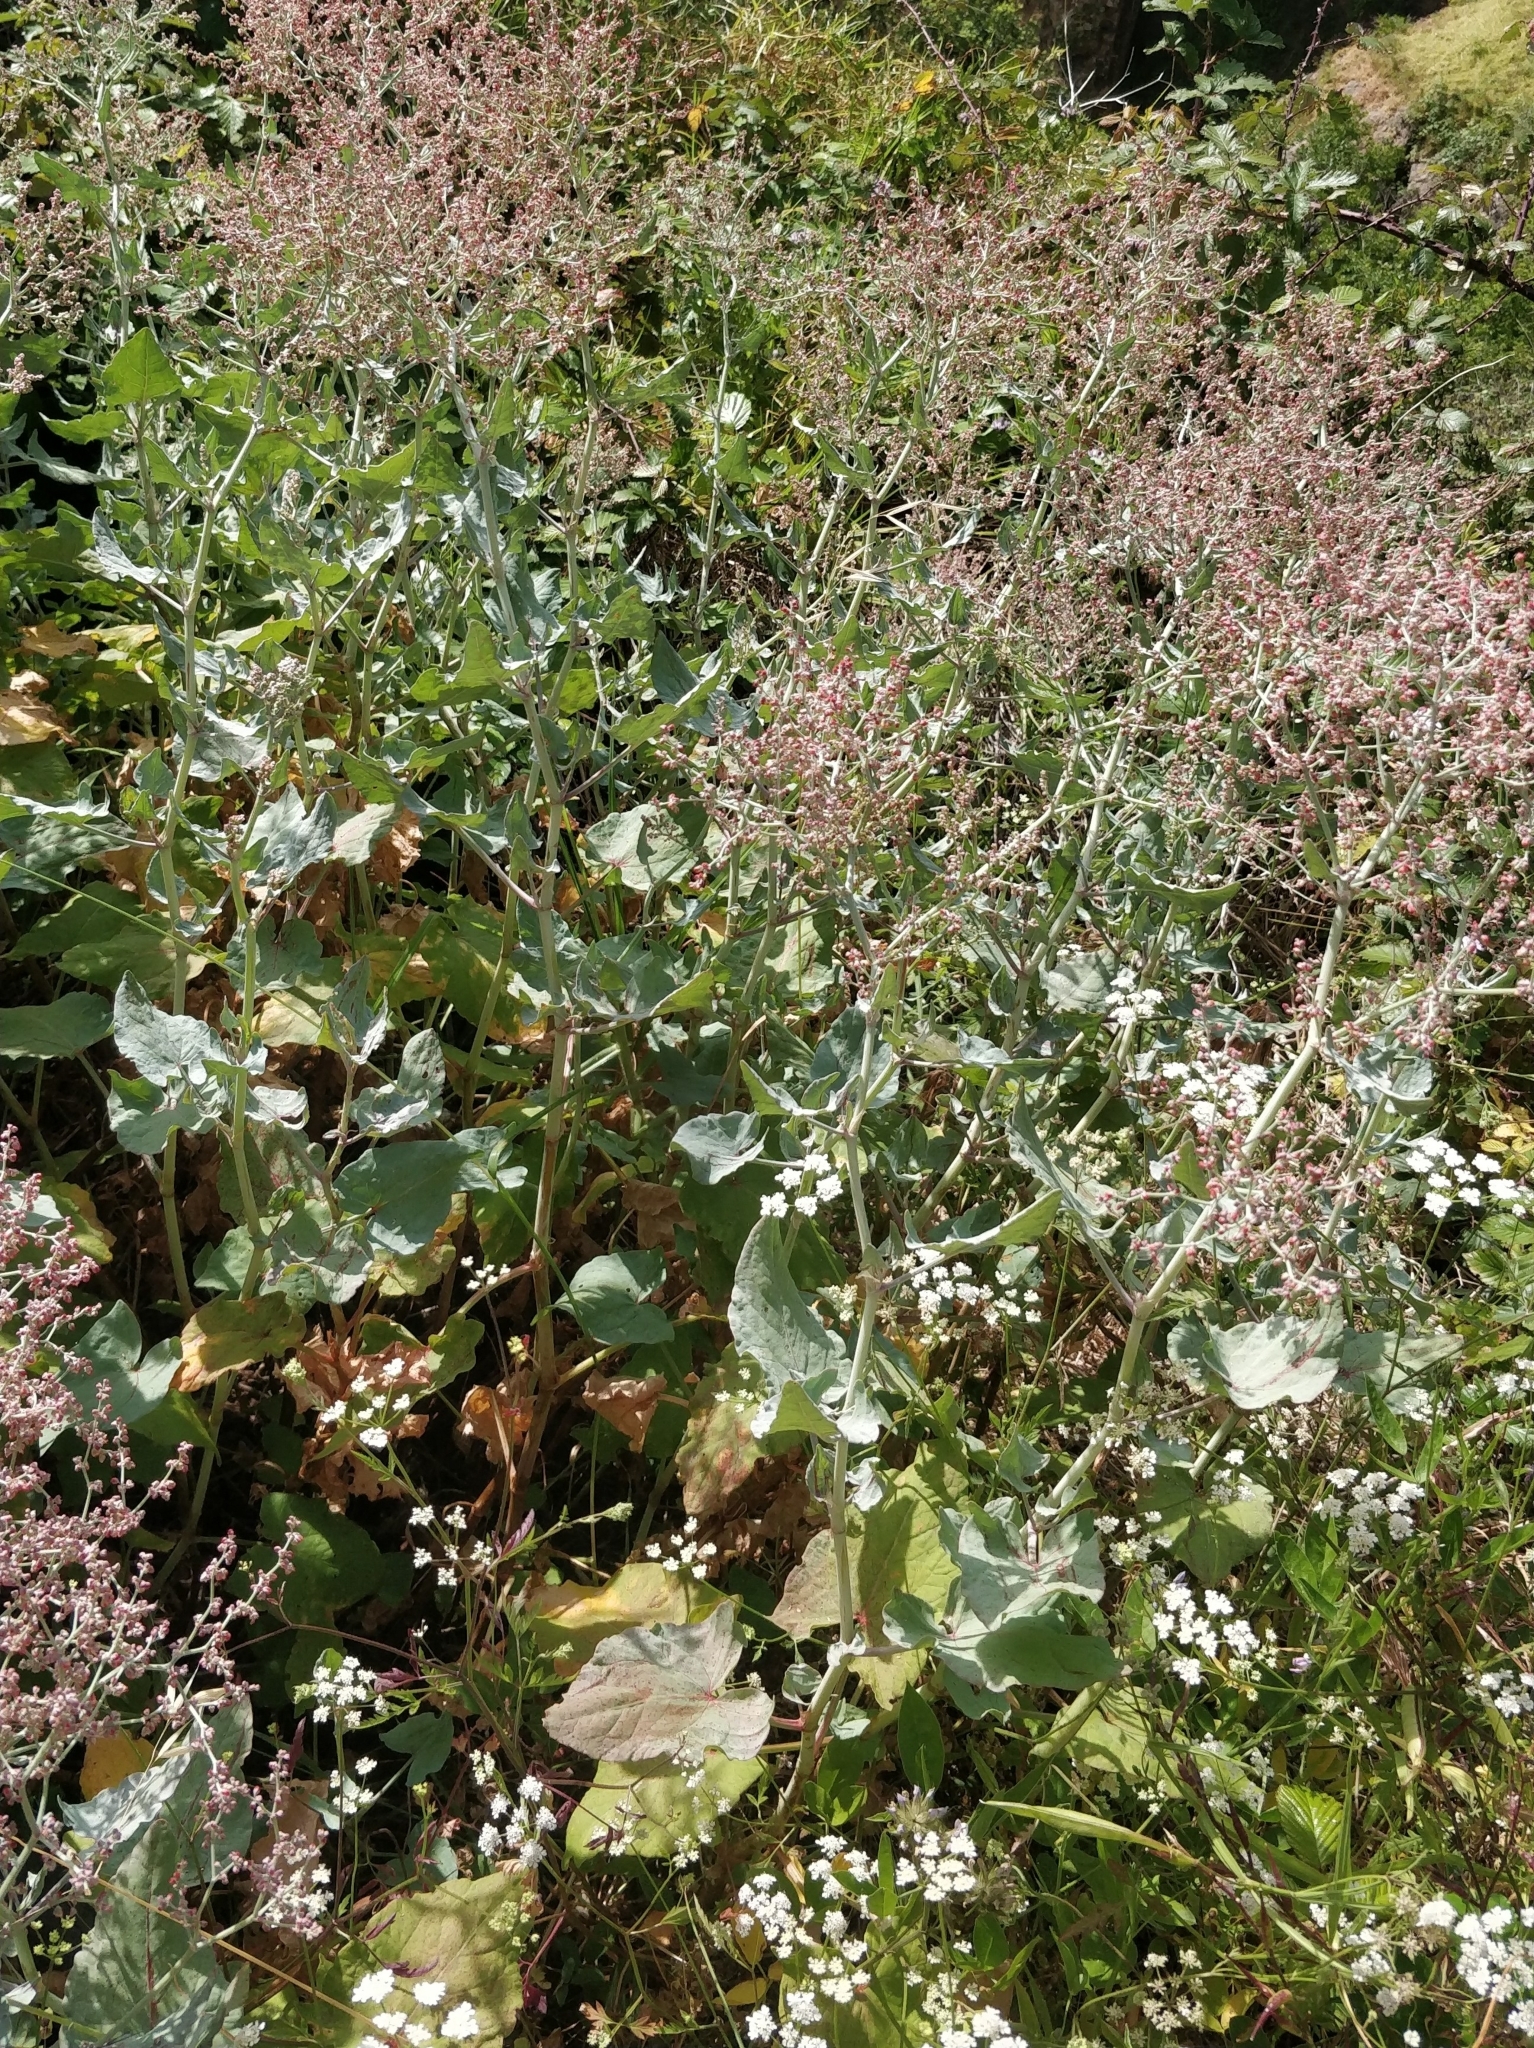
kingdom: Plantae
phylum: Tracheophyta
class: Magnoliopsida
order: Caryophyllales
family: Polygonaceae
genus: Rumex
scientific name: Rumex maderensis
